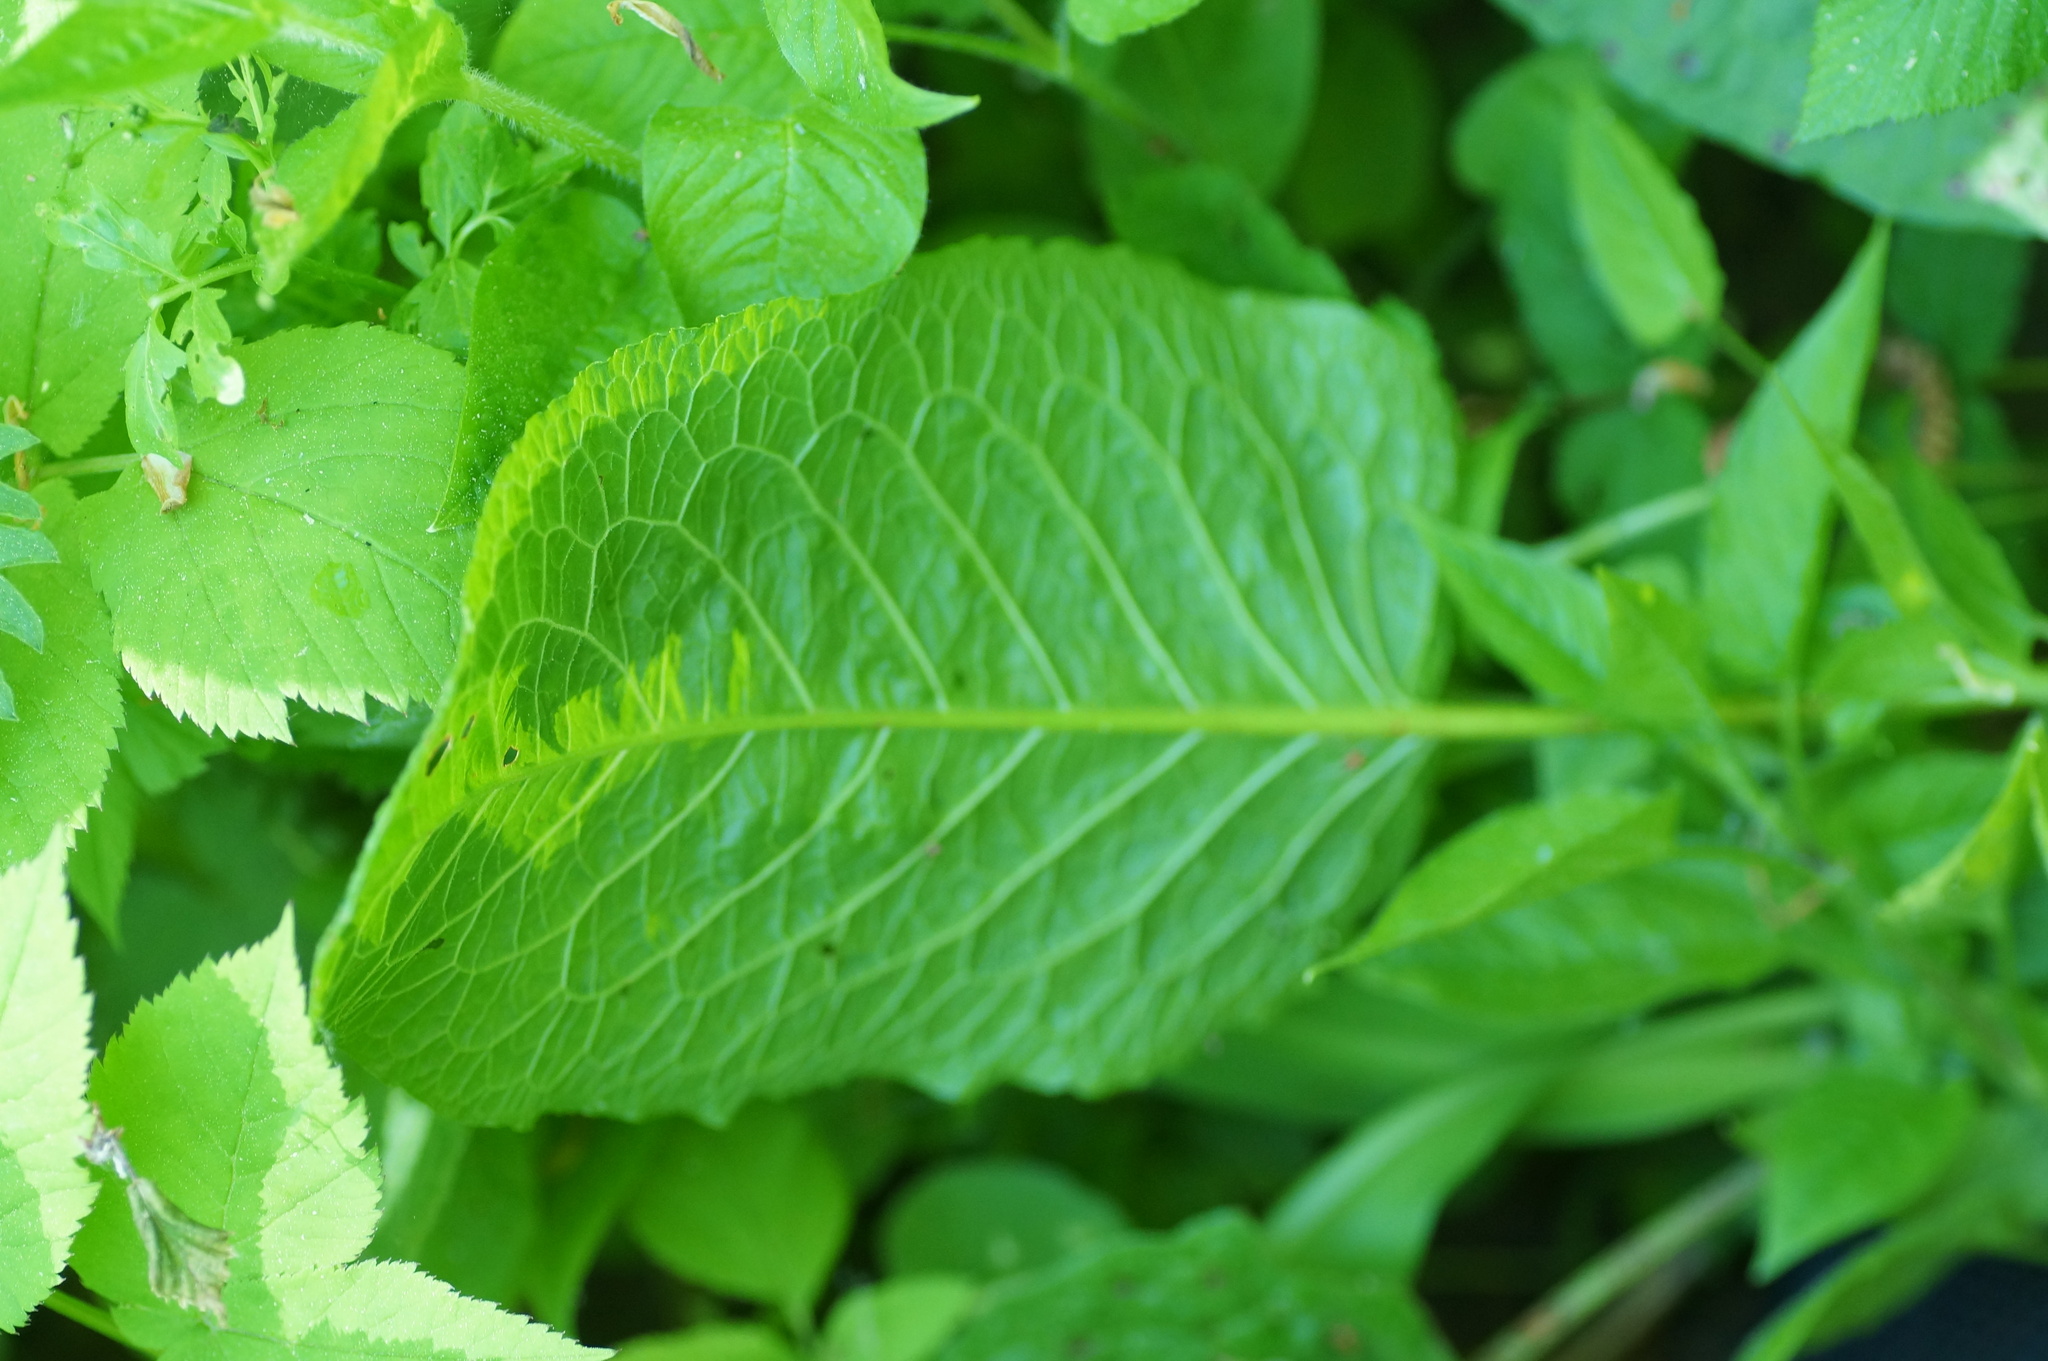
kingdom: Plantae
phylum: Tracheophyta
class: Magnoliopsida
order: Caryophyllales
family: Polygonaceae
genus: Rumex
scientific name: Rumex obtusifolius
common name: Bitter dock
